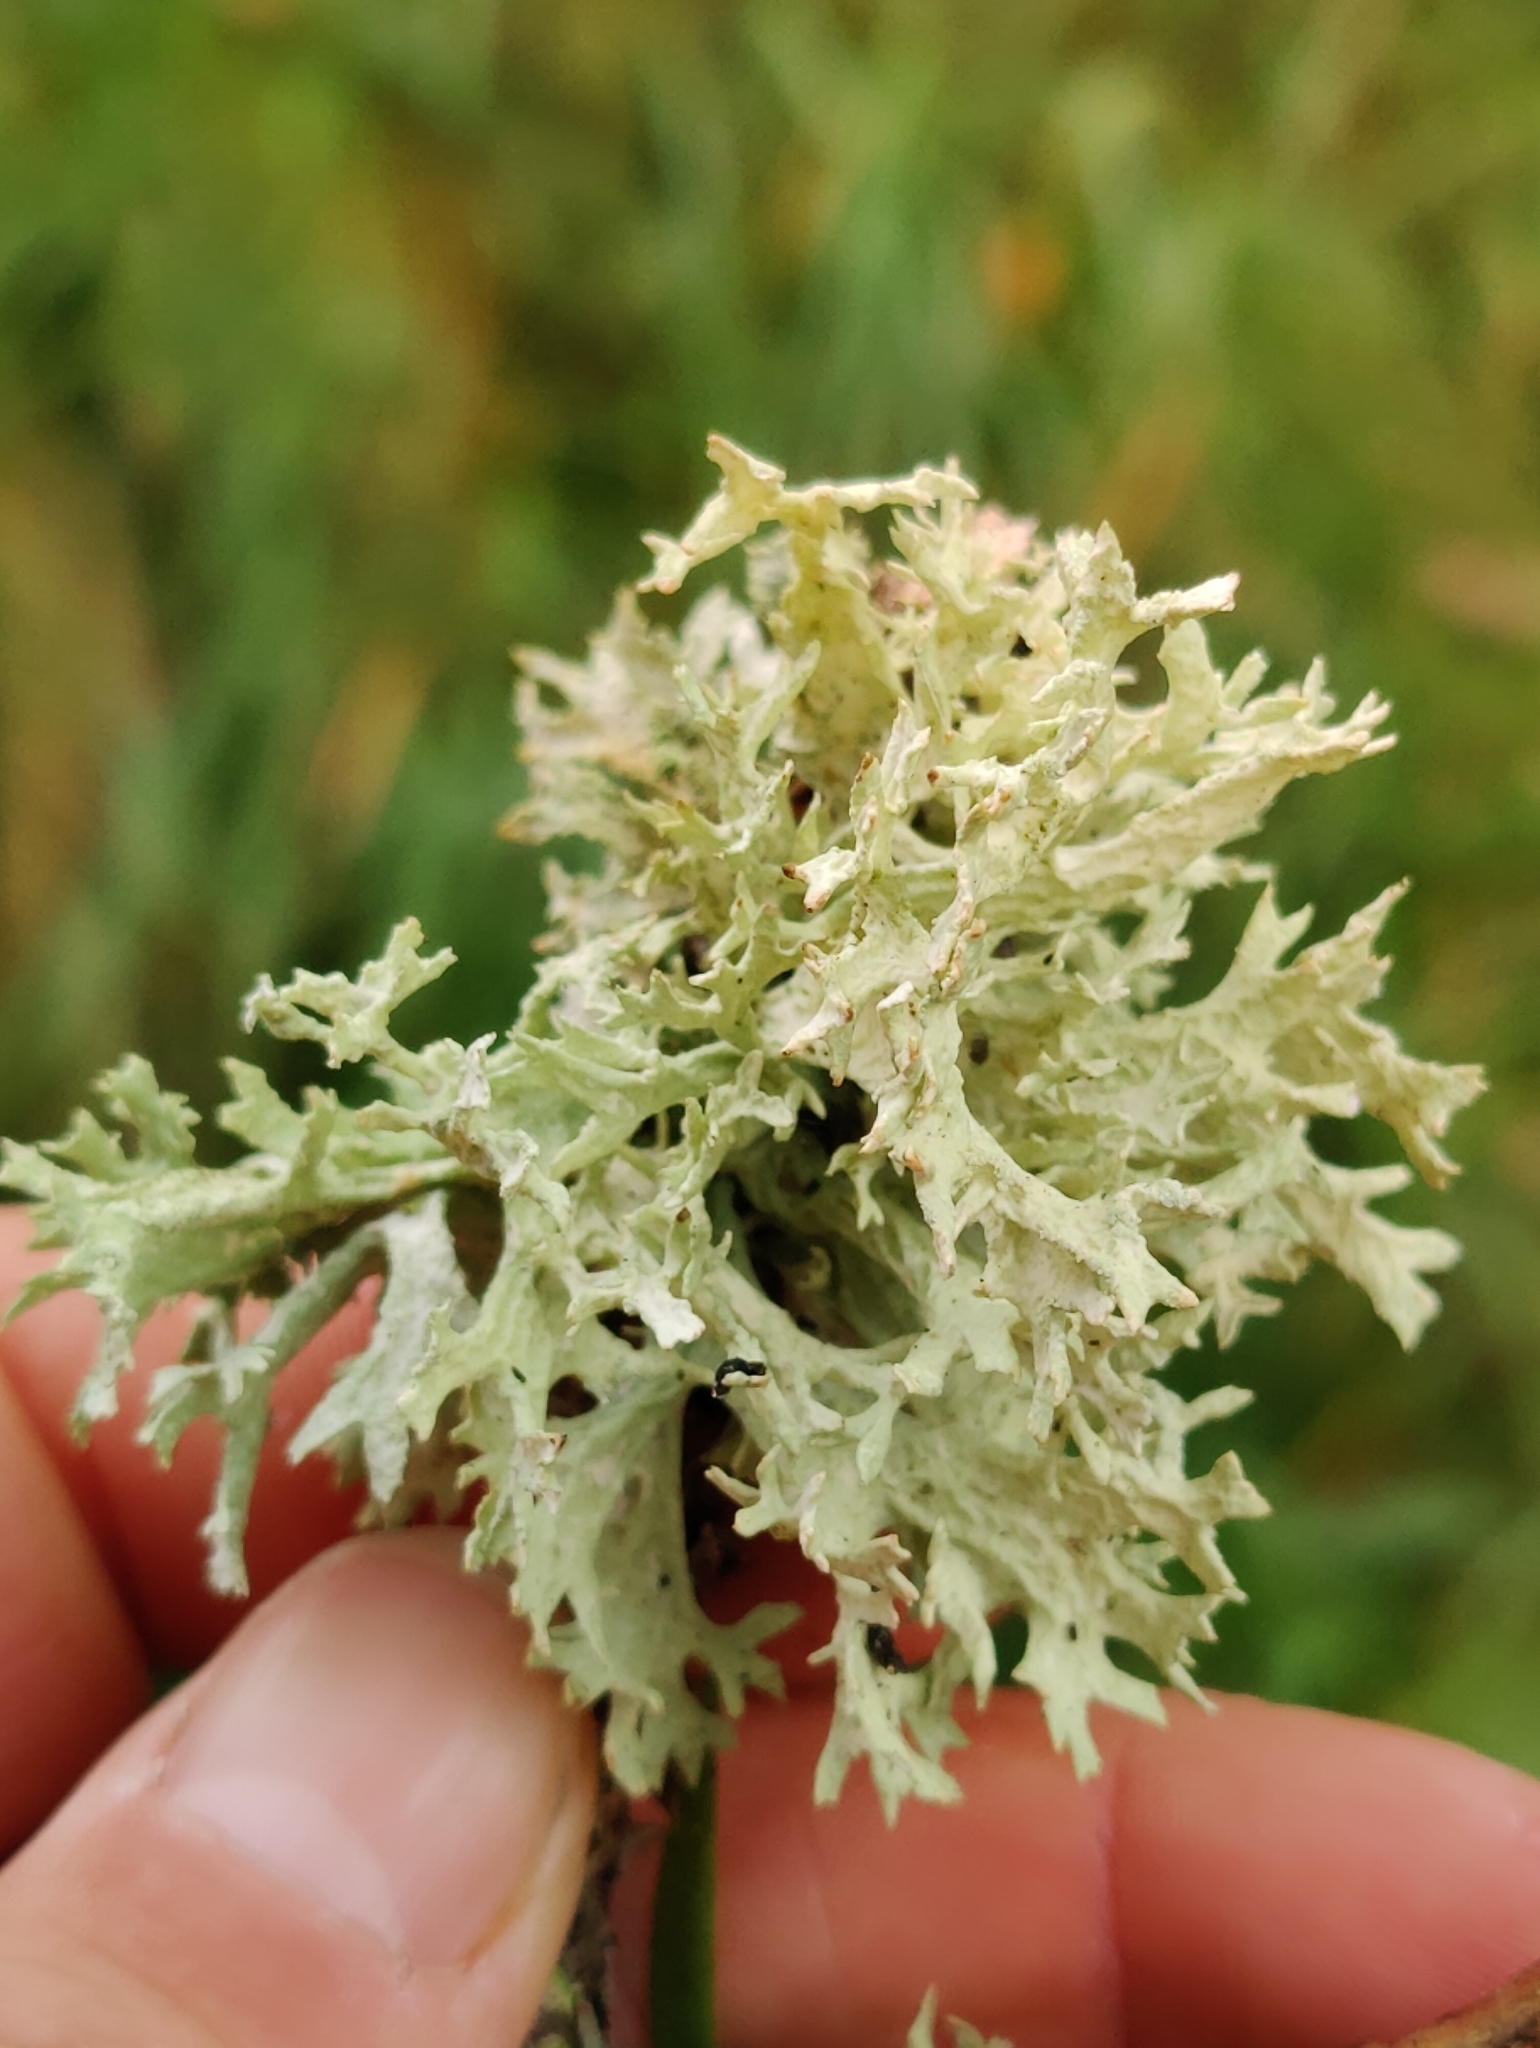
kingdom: Fungi
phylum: Ascomycota
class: Lecanoromycetes
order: Lecanorales
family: Parmeliaceae
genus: Evernia
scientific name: Evernia prunastri
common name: Oak moss
